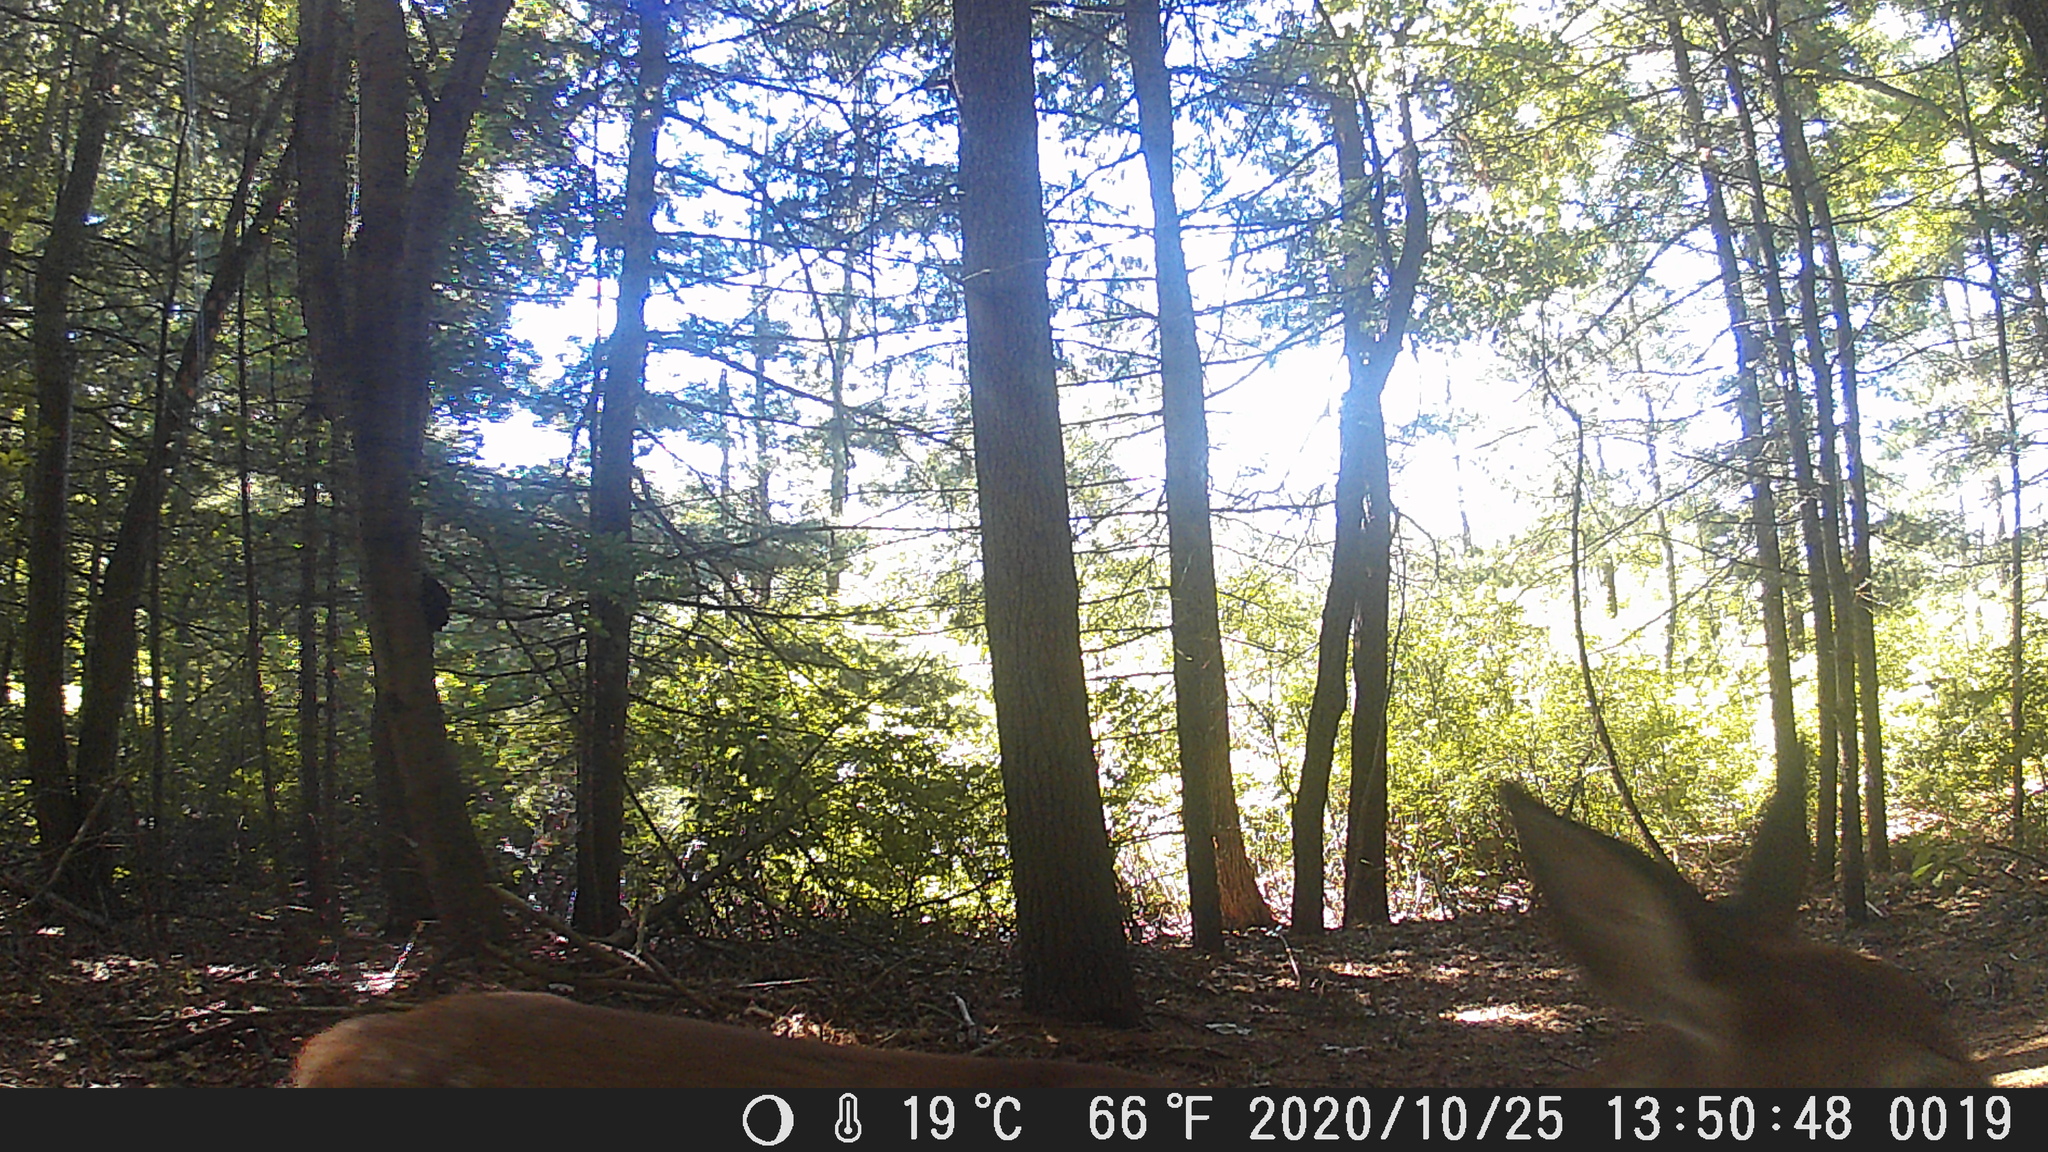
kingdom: Animalia
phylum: Chordata
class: Mammalia
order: Artiodactyla
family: Cervidae
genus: Odocoileus
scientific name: Odocoileus virginianus
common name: White-tailed deer
